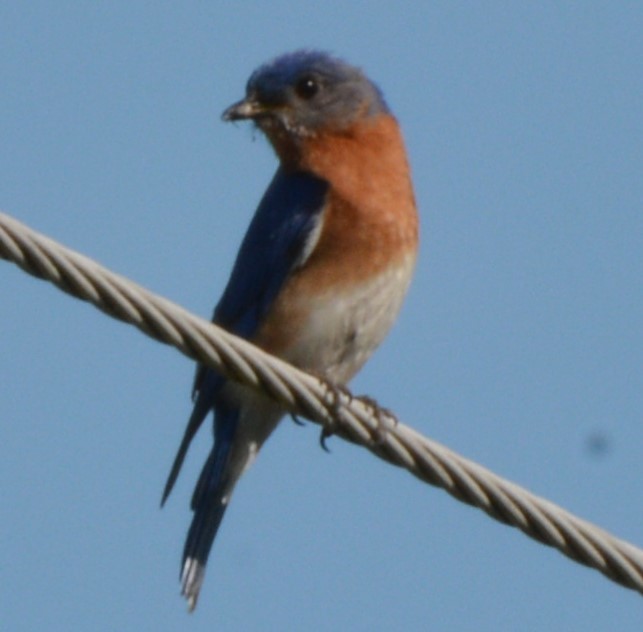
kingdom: Animalia
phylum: Chordata
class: Aves
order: Passeriformes
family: Turdidae
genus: Sialia
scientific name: Sialia sialis
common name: Eastern bluebird
